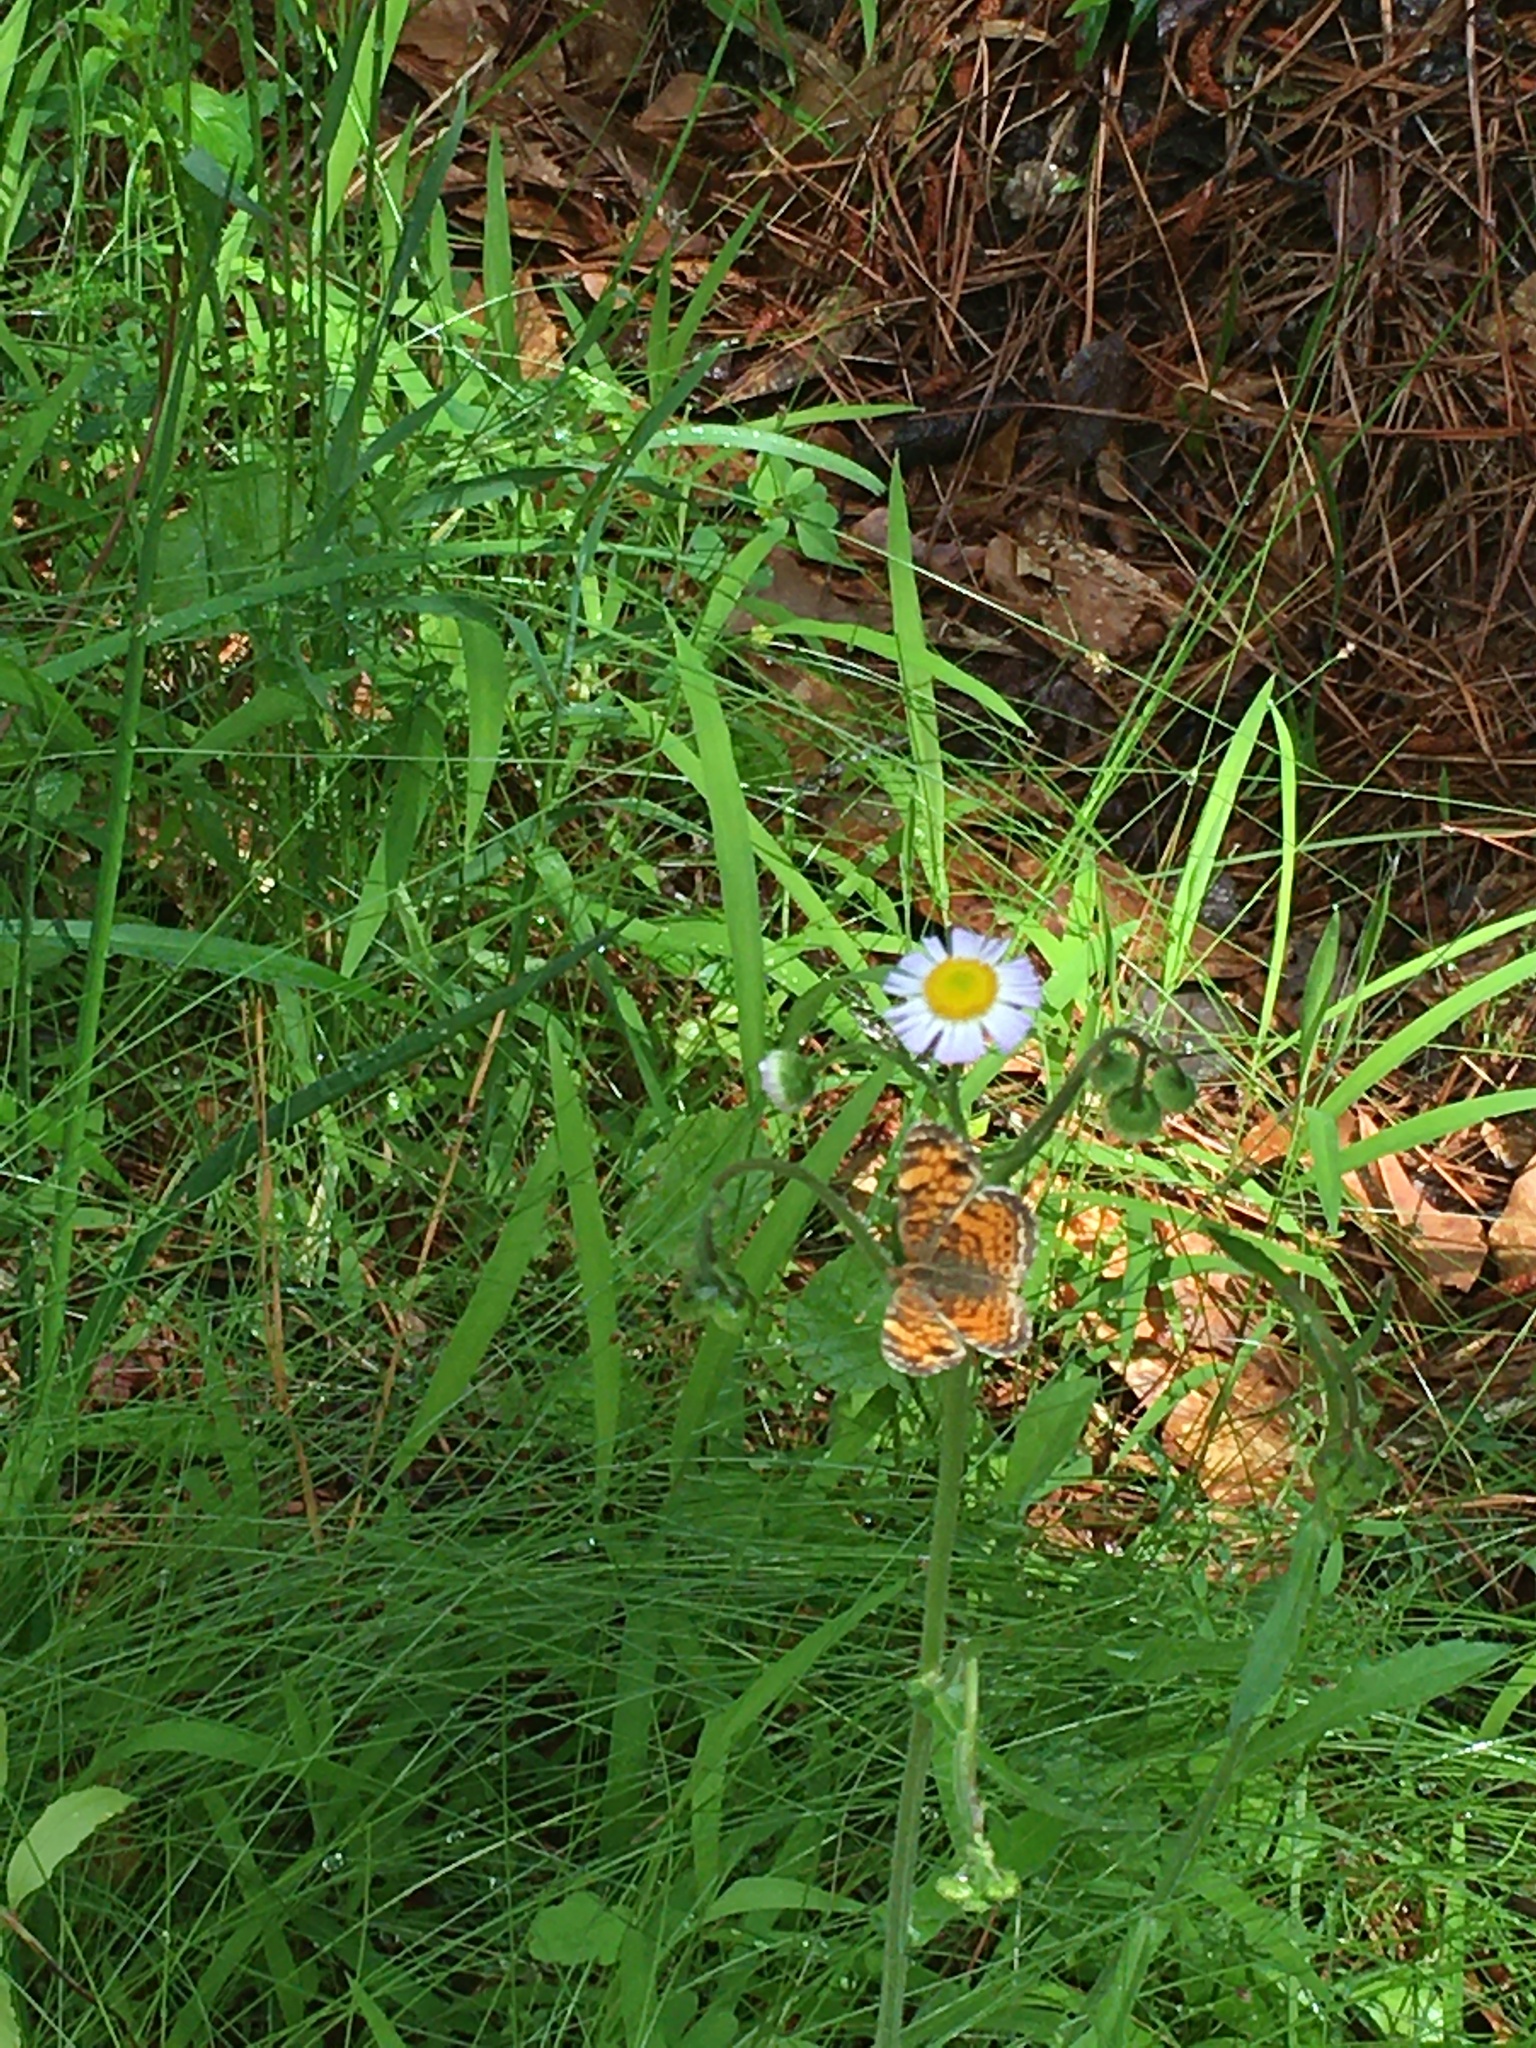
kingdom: Animalia
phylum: Arthropoda
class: Insecta
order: Lepidoptera
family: Nymphalidae
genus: Phyciodes
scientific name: Phyciodes tharos
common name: Pearl crescent
